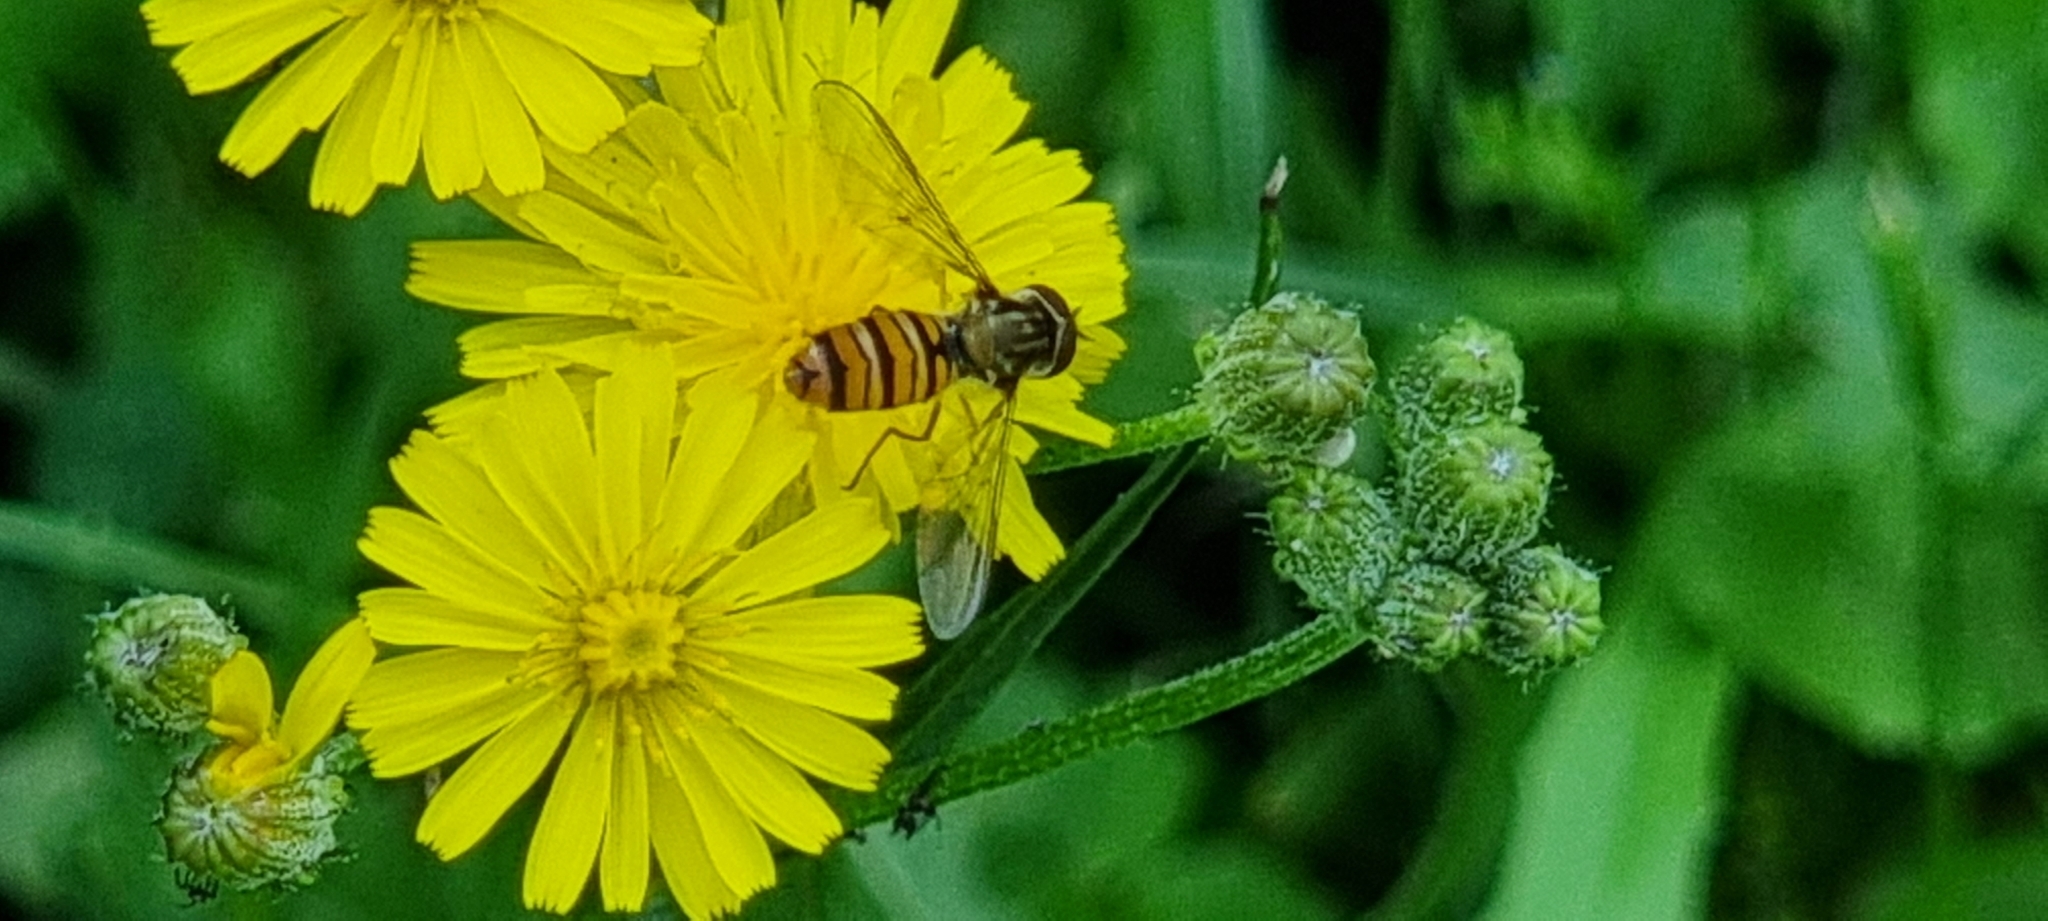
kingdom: Animalia
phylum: Arthropoda
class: Insecta
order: Diptera
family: Syrphidae
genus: Episyrphus
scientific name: Episyrphus balteatus
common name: Marmalade hoverfly
